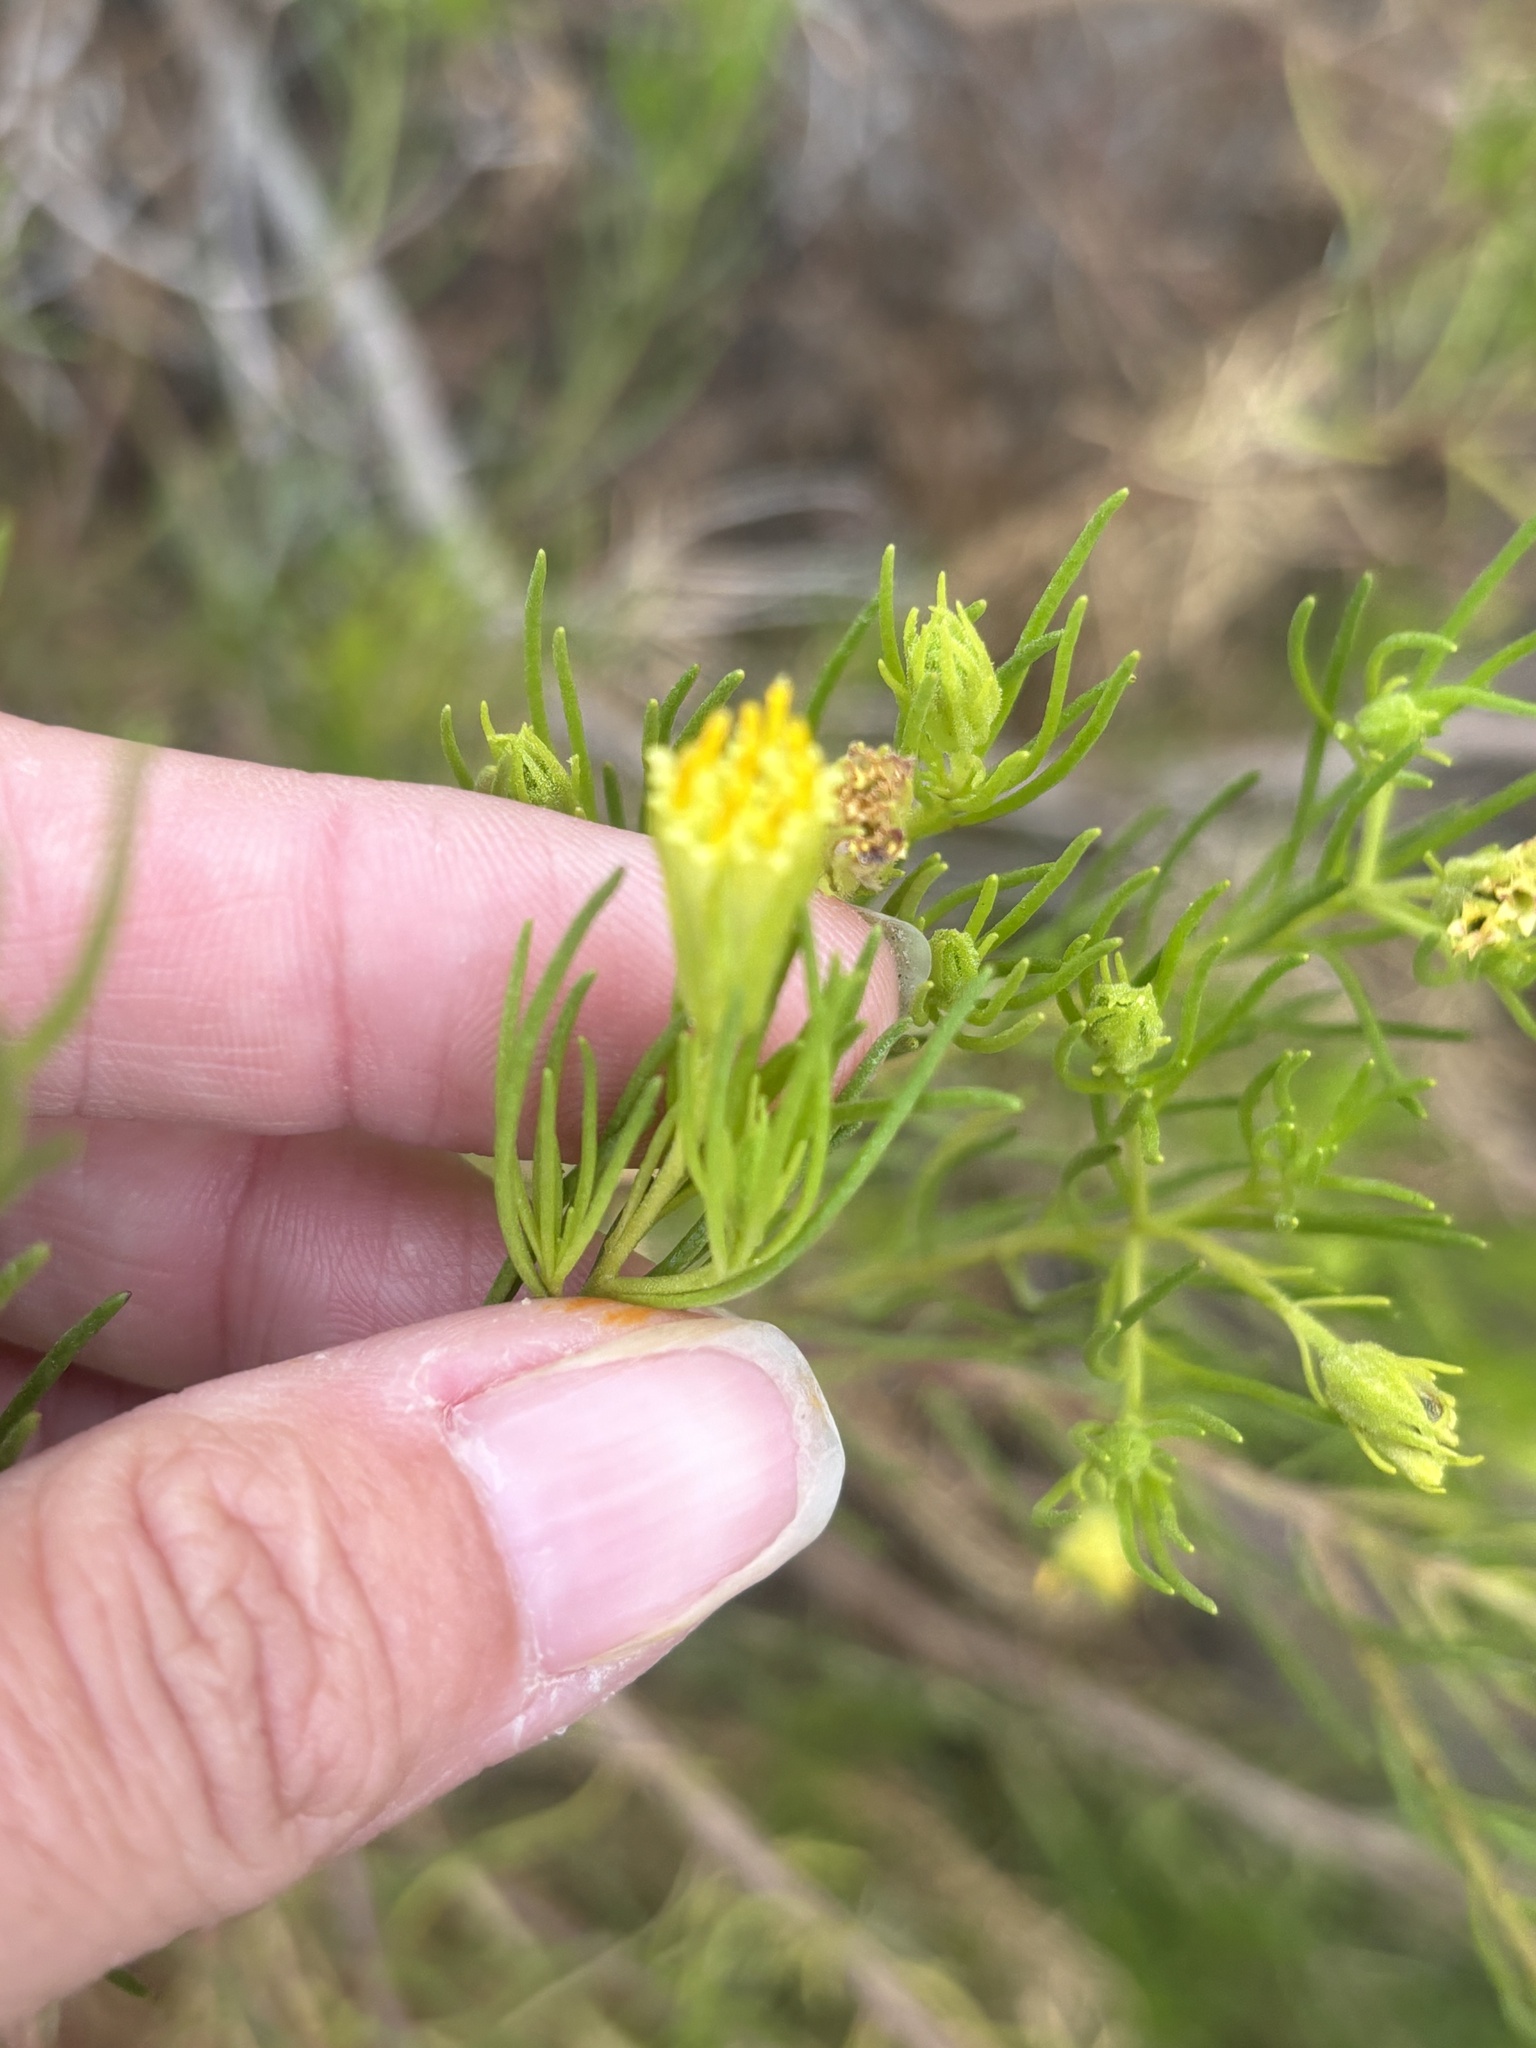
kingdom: Plantae
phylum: Tracheophyta
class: Magnoliopsida
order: Asterales
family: Asteraceae
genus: Peucephyllum
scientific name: Peucephyllum schottii
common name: Pygmy-cedar
